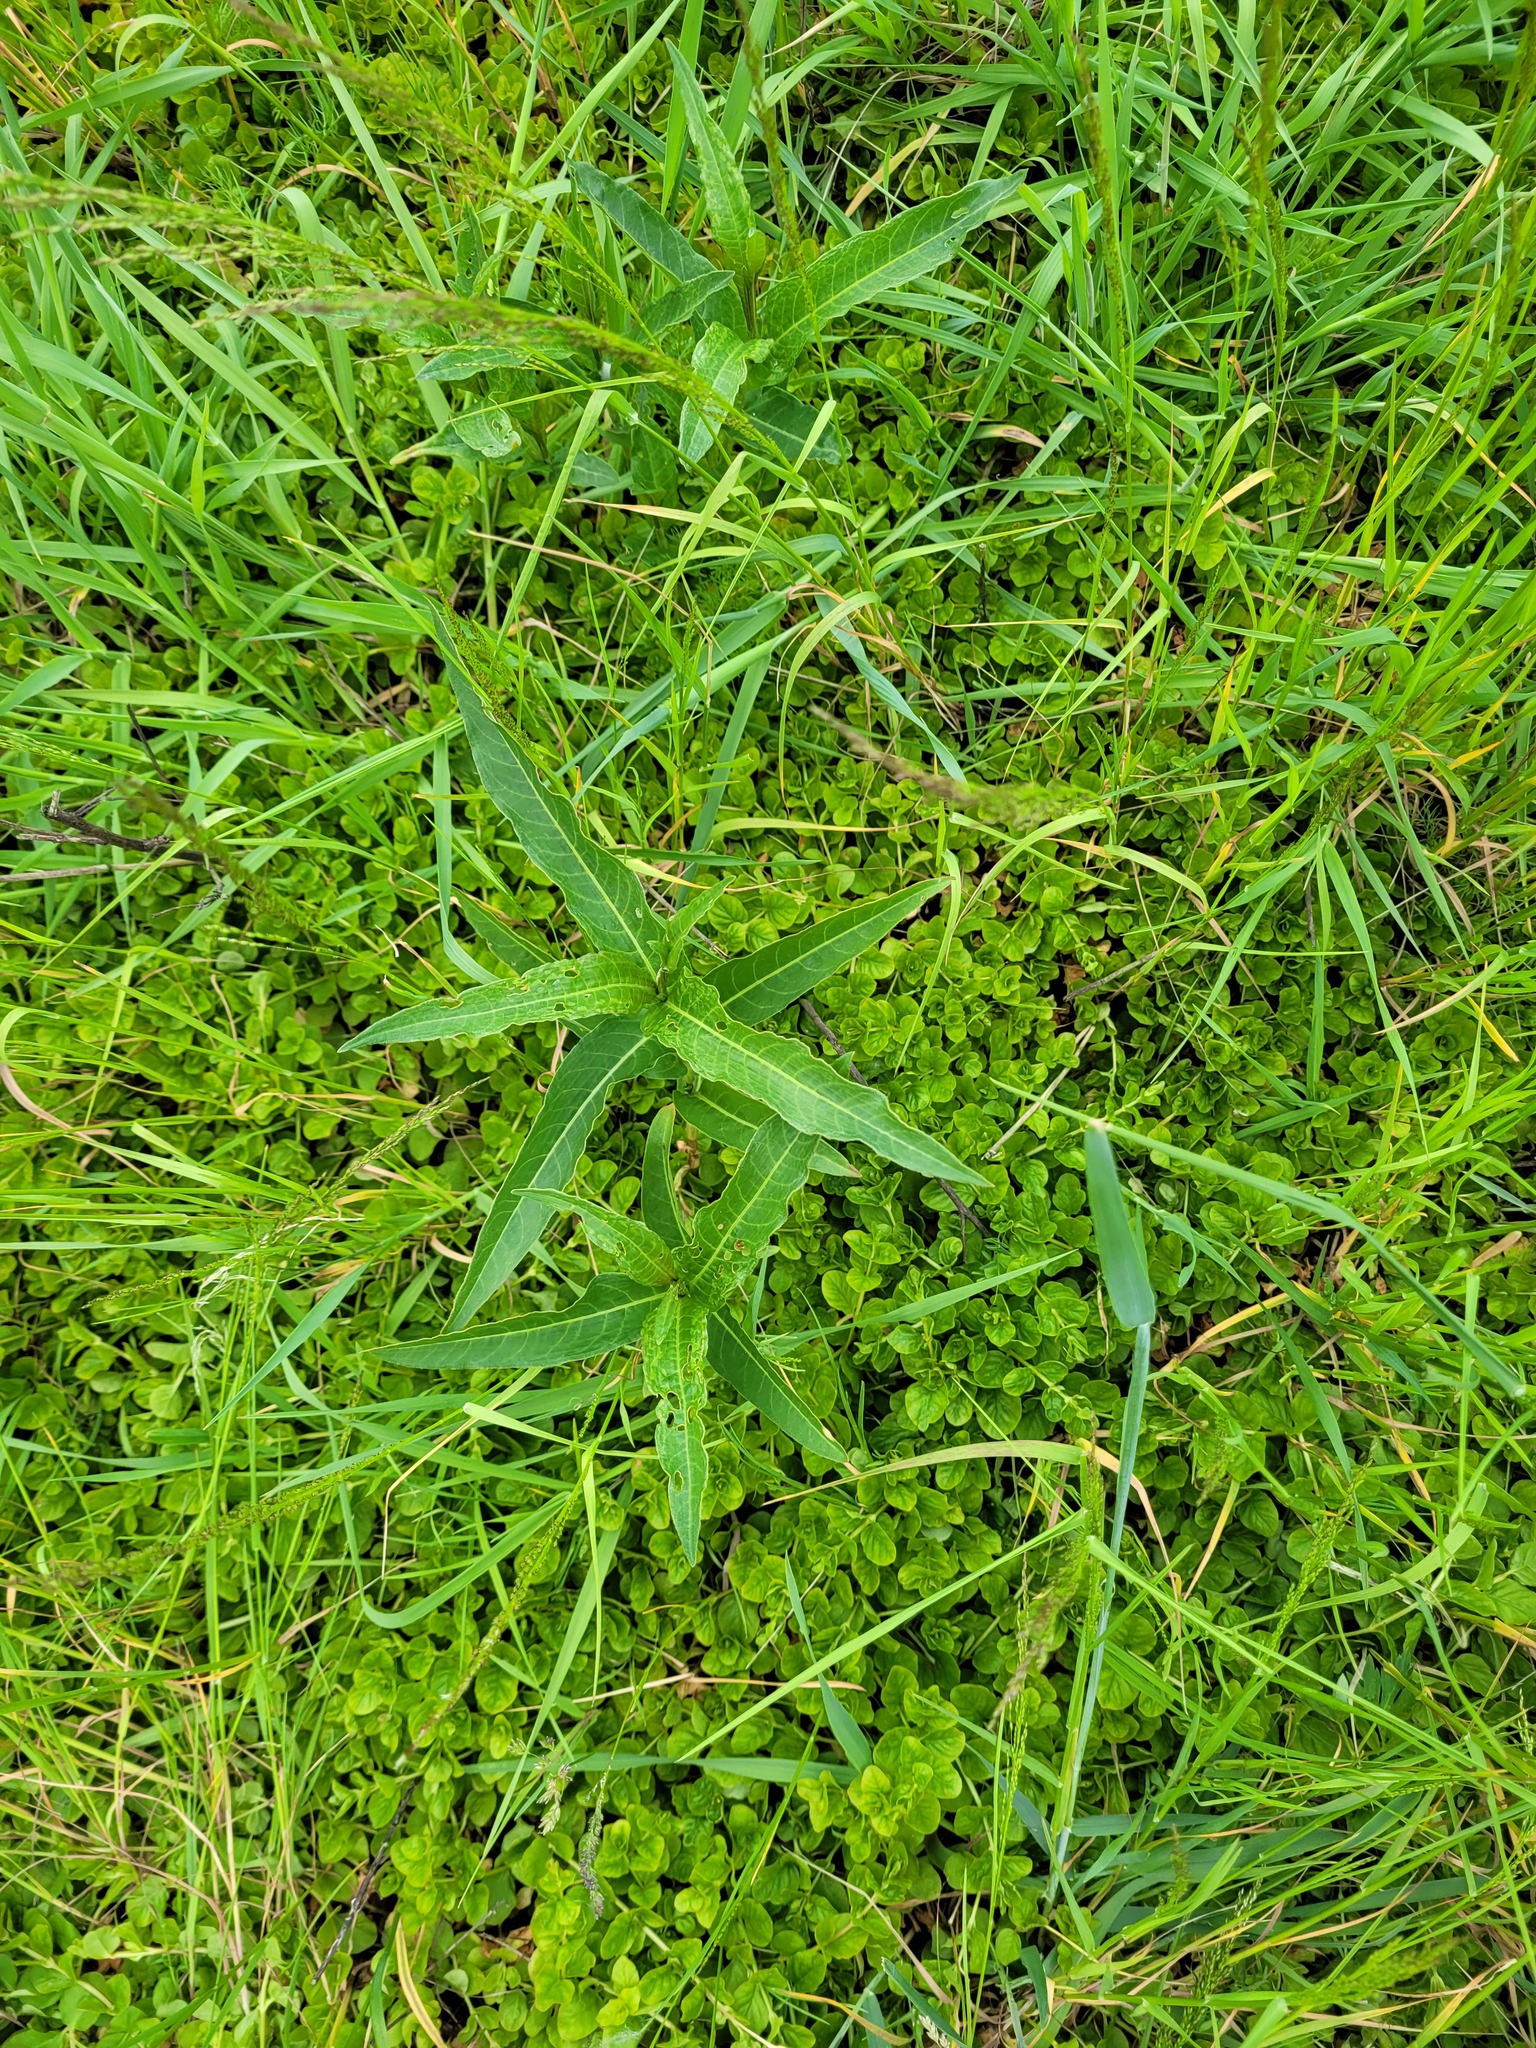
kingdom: Plantae
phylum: Tracheophyta
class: Magnoliopsida
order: Caryophyllales
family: Polygonaceae
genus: Persicaria
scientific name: Persicaria amphibia
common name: Amphibious bistort
